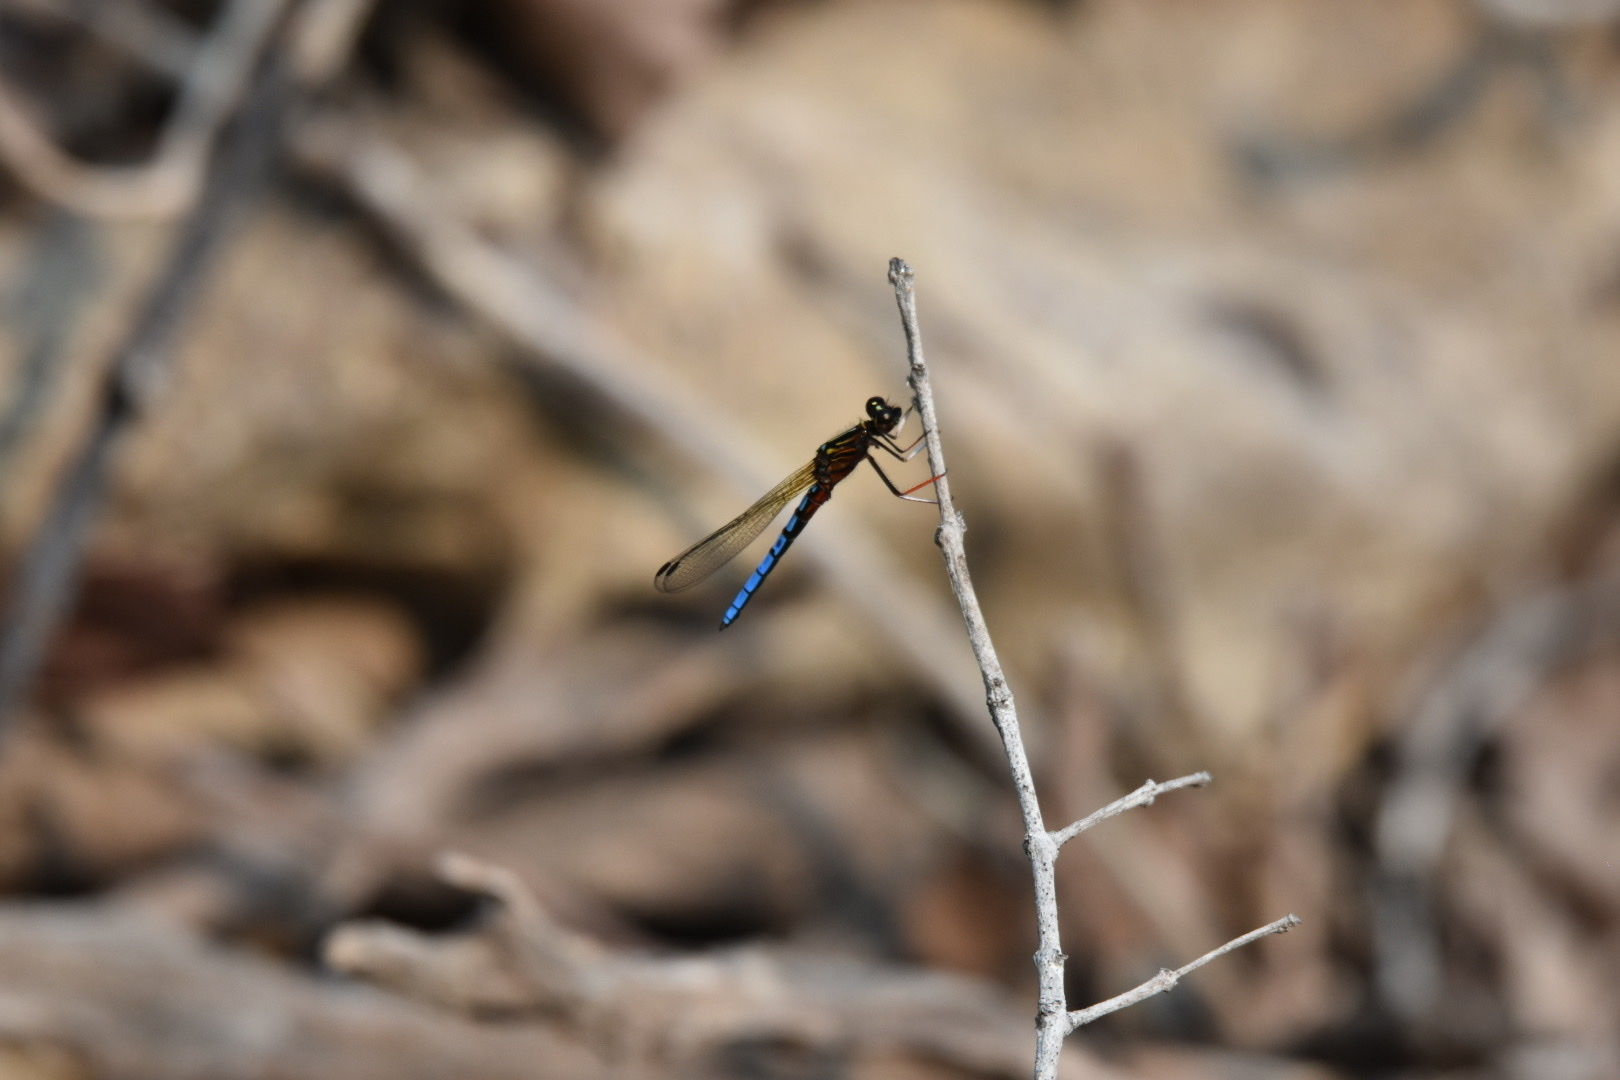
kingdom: Animalia
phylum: Arthropoda
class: Insecta
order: Odonata
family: Chlorocyphidae
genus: Platycypha
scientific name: Platycypha caligata
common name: Dancing jewel
